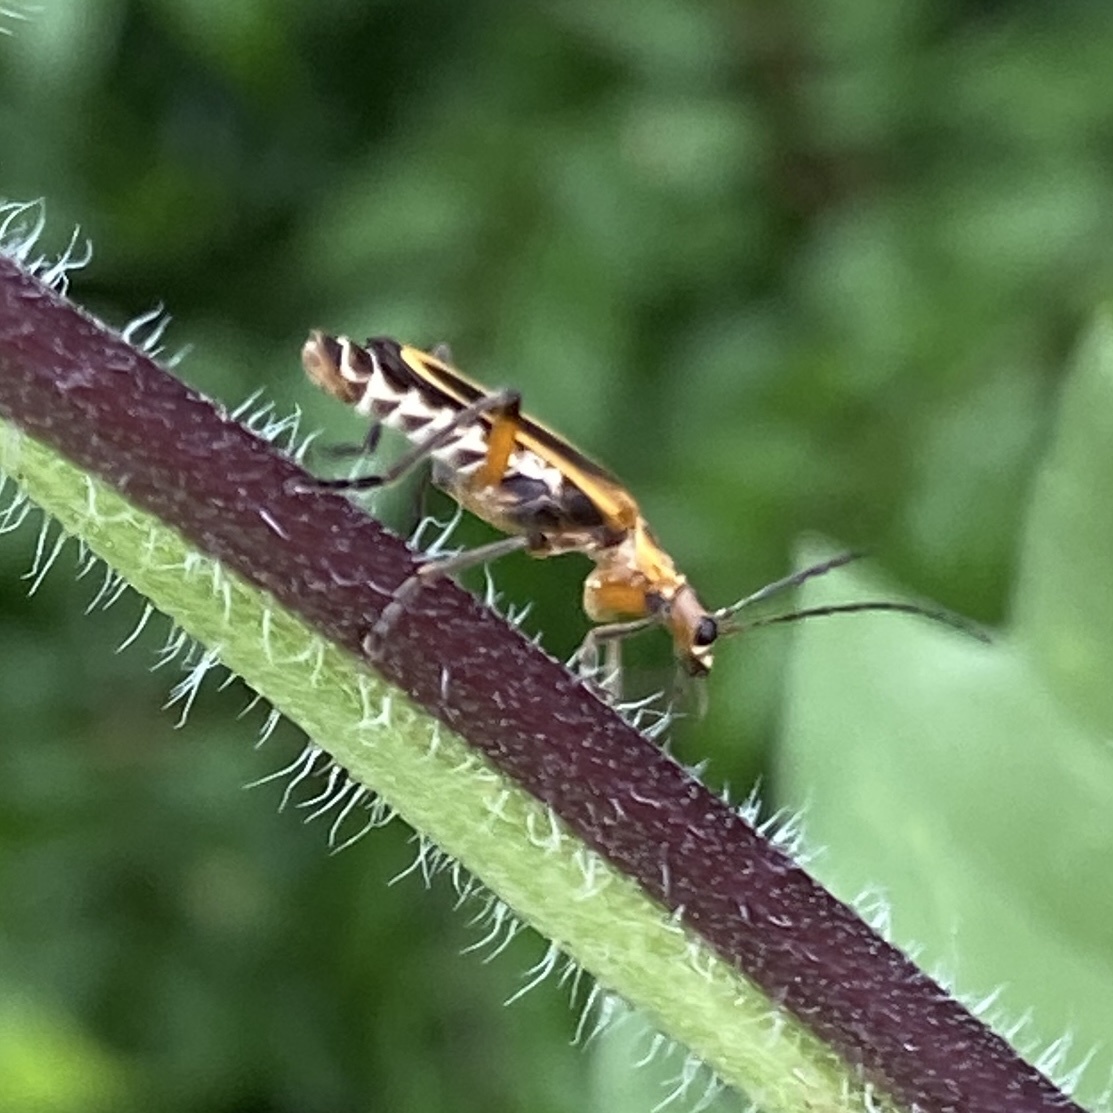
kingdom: Animalia
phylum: Arthropoda
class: Insecta
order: Coleoptera
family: Cantharidae
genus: Chauliognathus
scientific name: Chauliognathus marginatus
